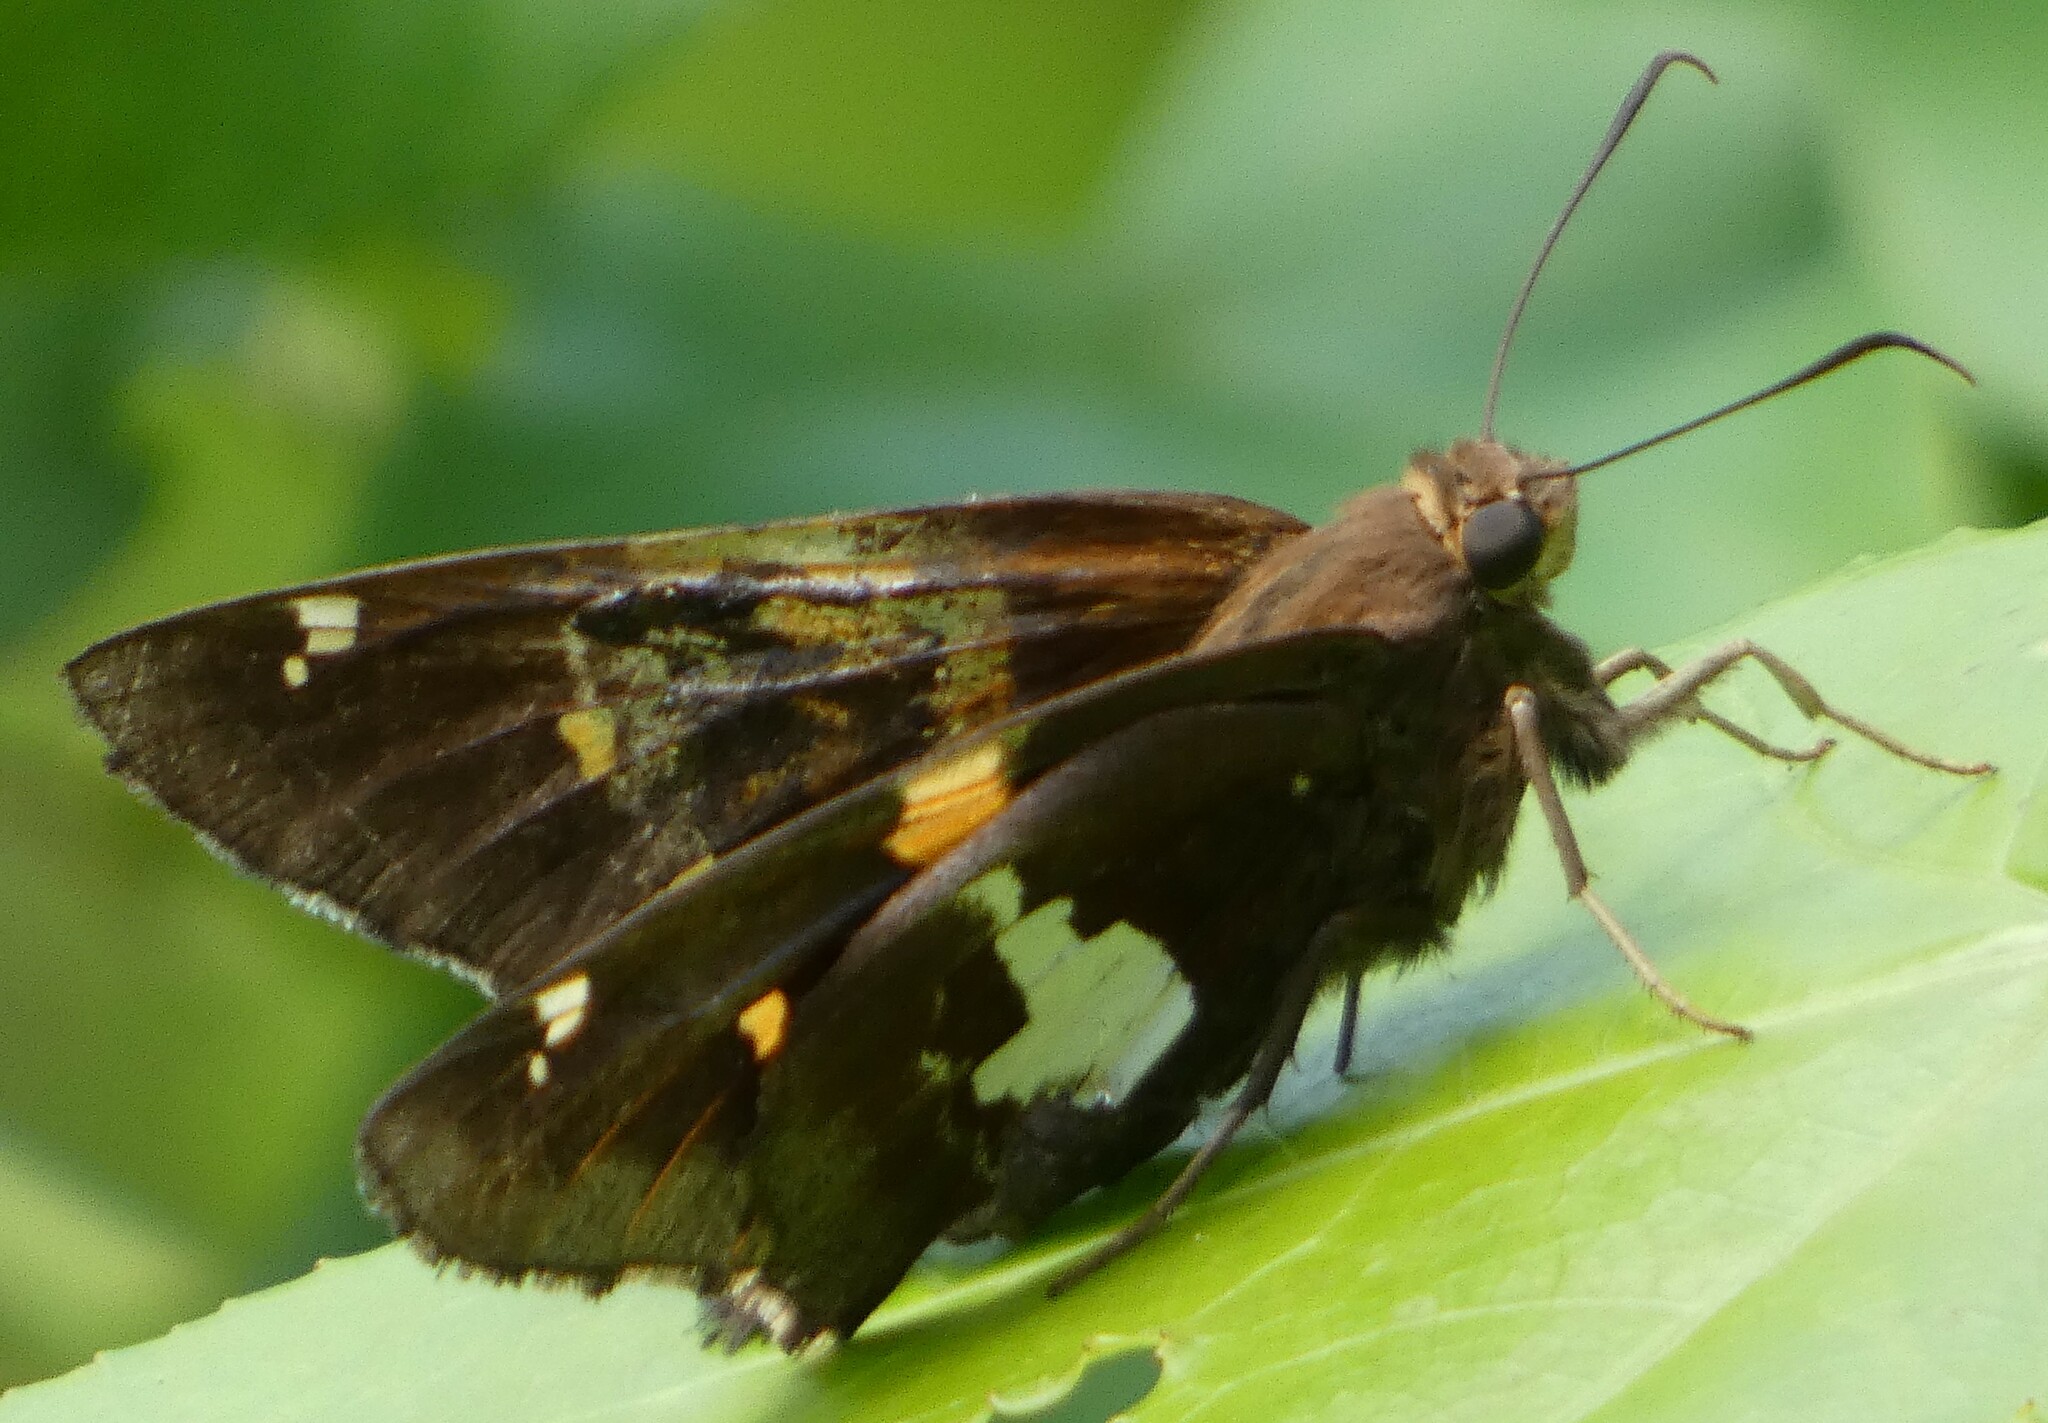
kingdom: Animalia
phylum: Arthropoda
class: Insecta
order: Lepidoptera
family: Hesperiidae
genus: Epargyreus
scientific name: Epargyreus clarus
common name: Silver-spotted skipper
